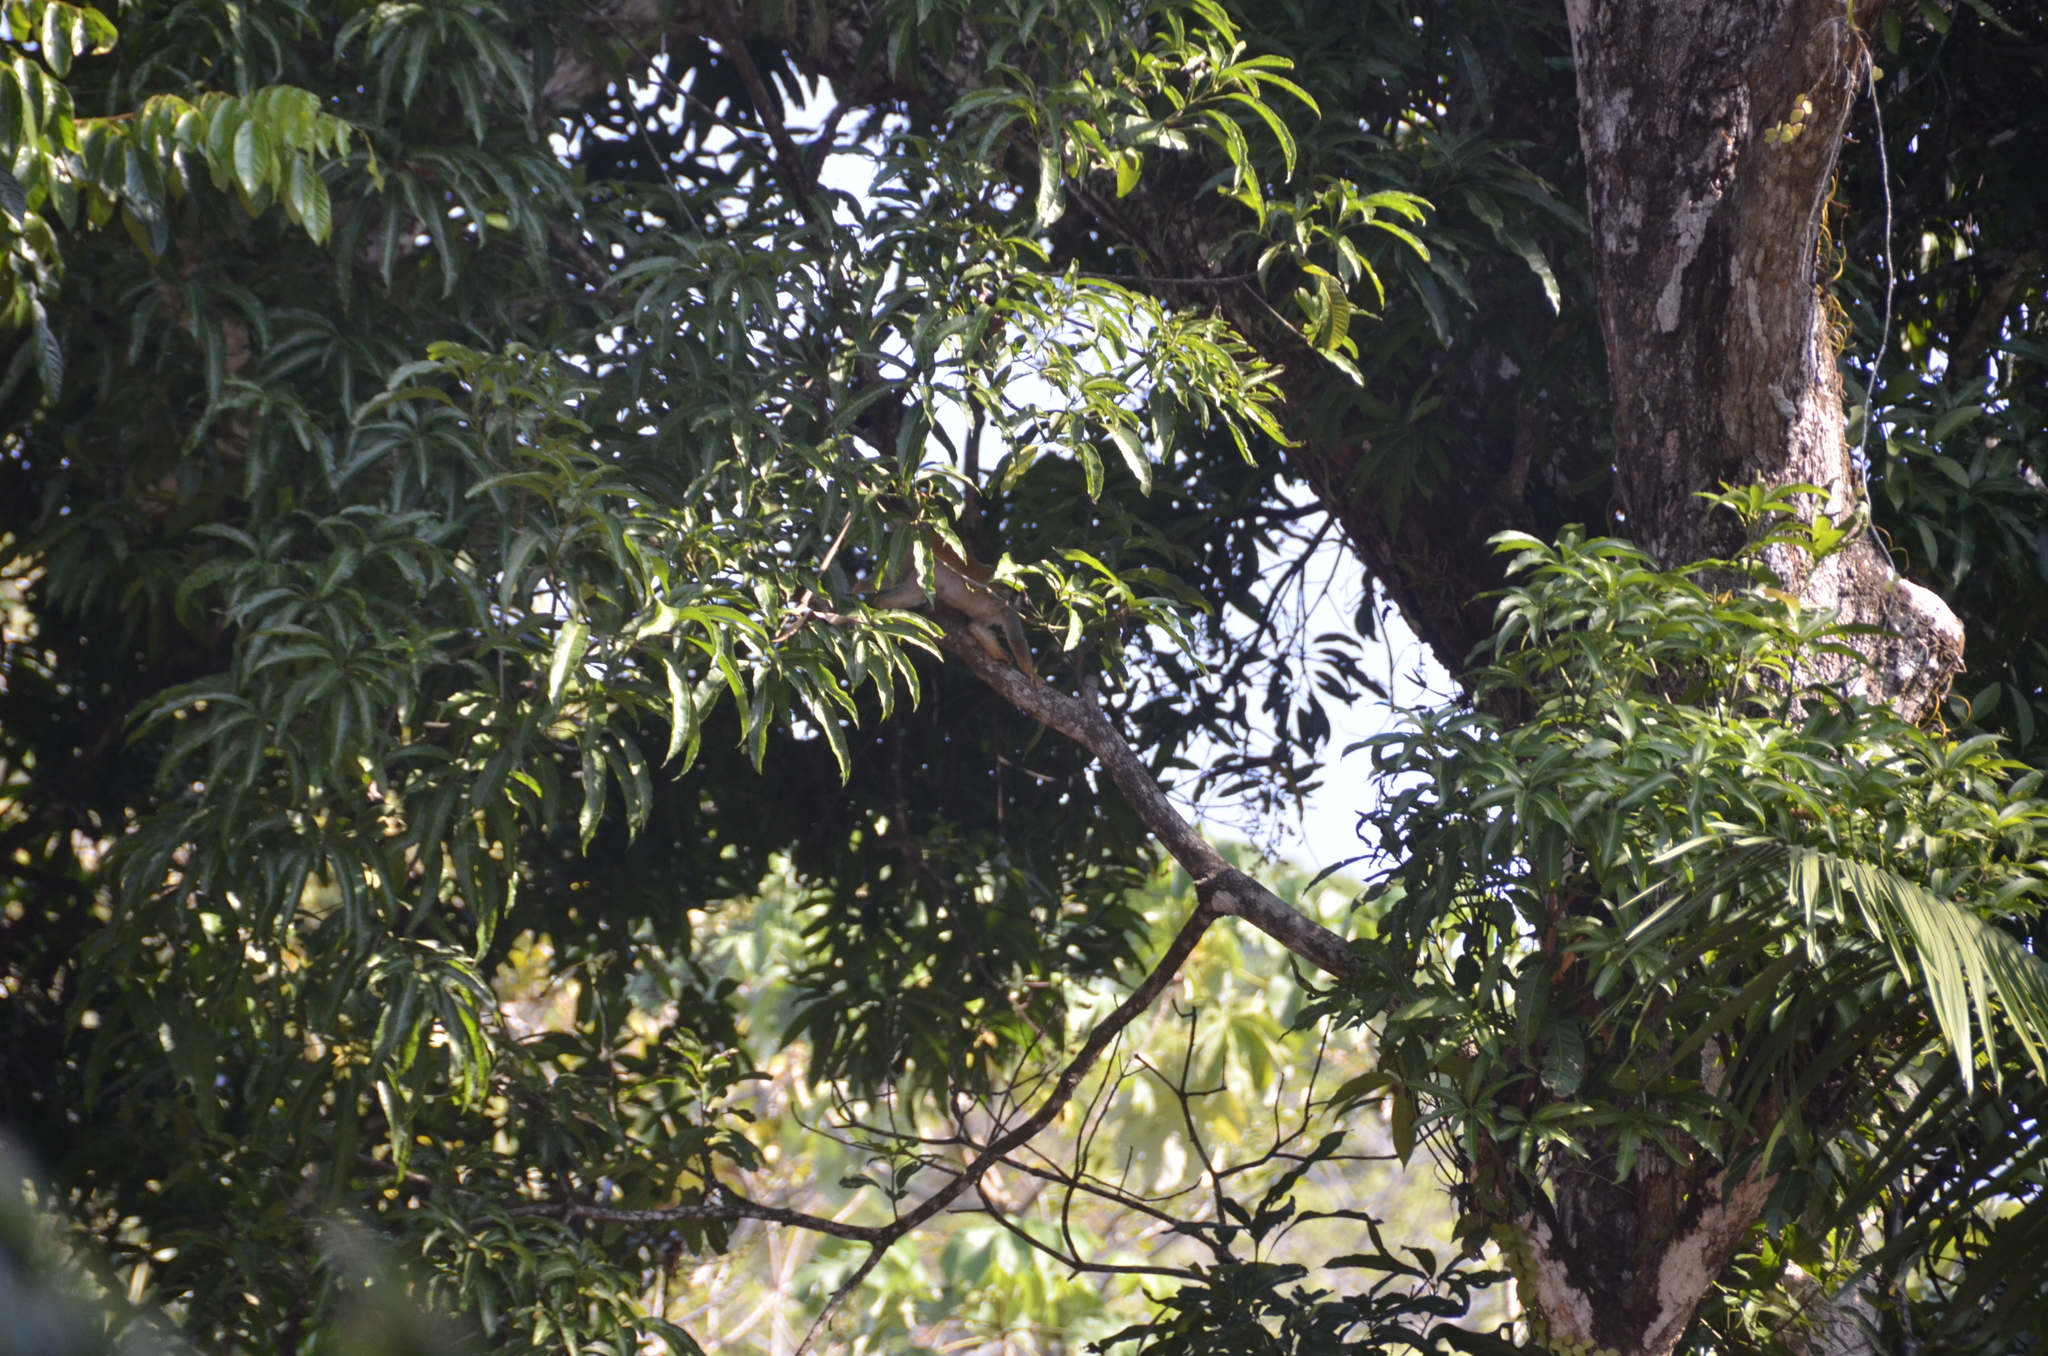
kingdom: Animalia
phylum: Chordata
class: Mammalia
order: Primates
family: Cebidae
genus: Saimiri
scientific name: Saimiri oerstedii
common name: Central american squirrel monkey
